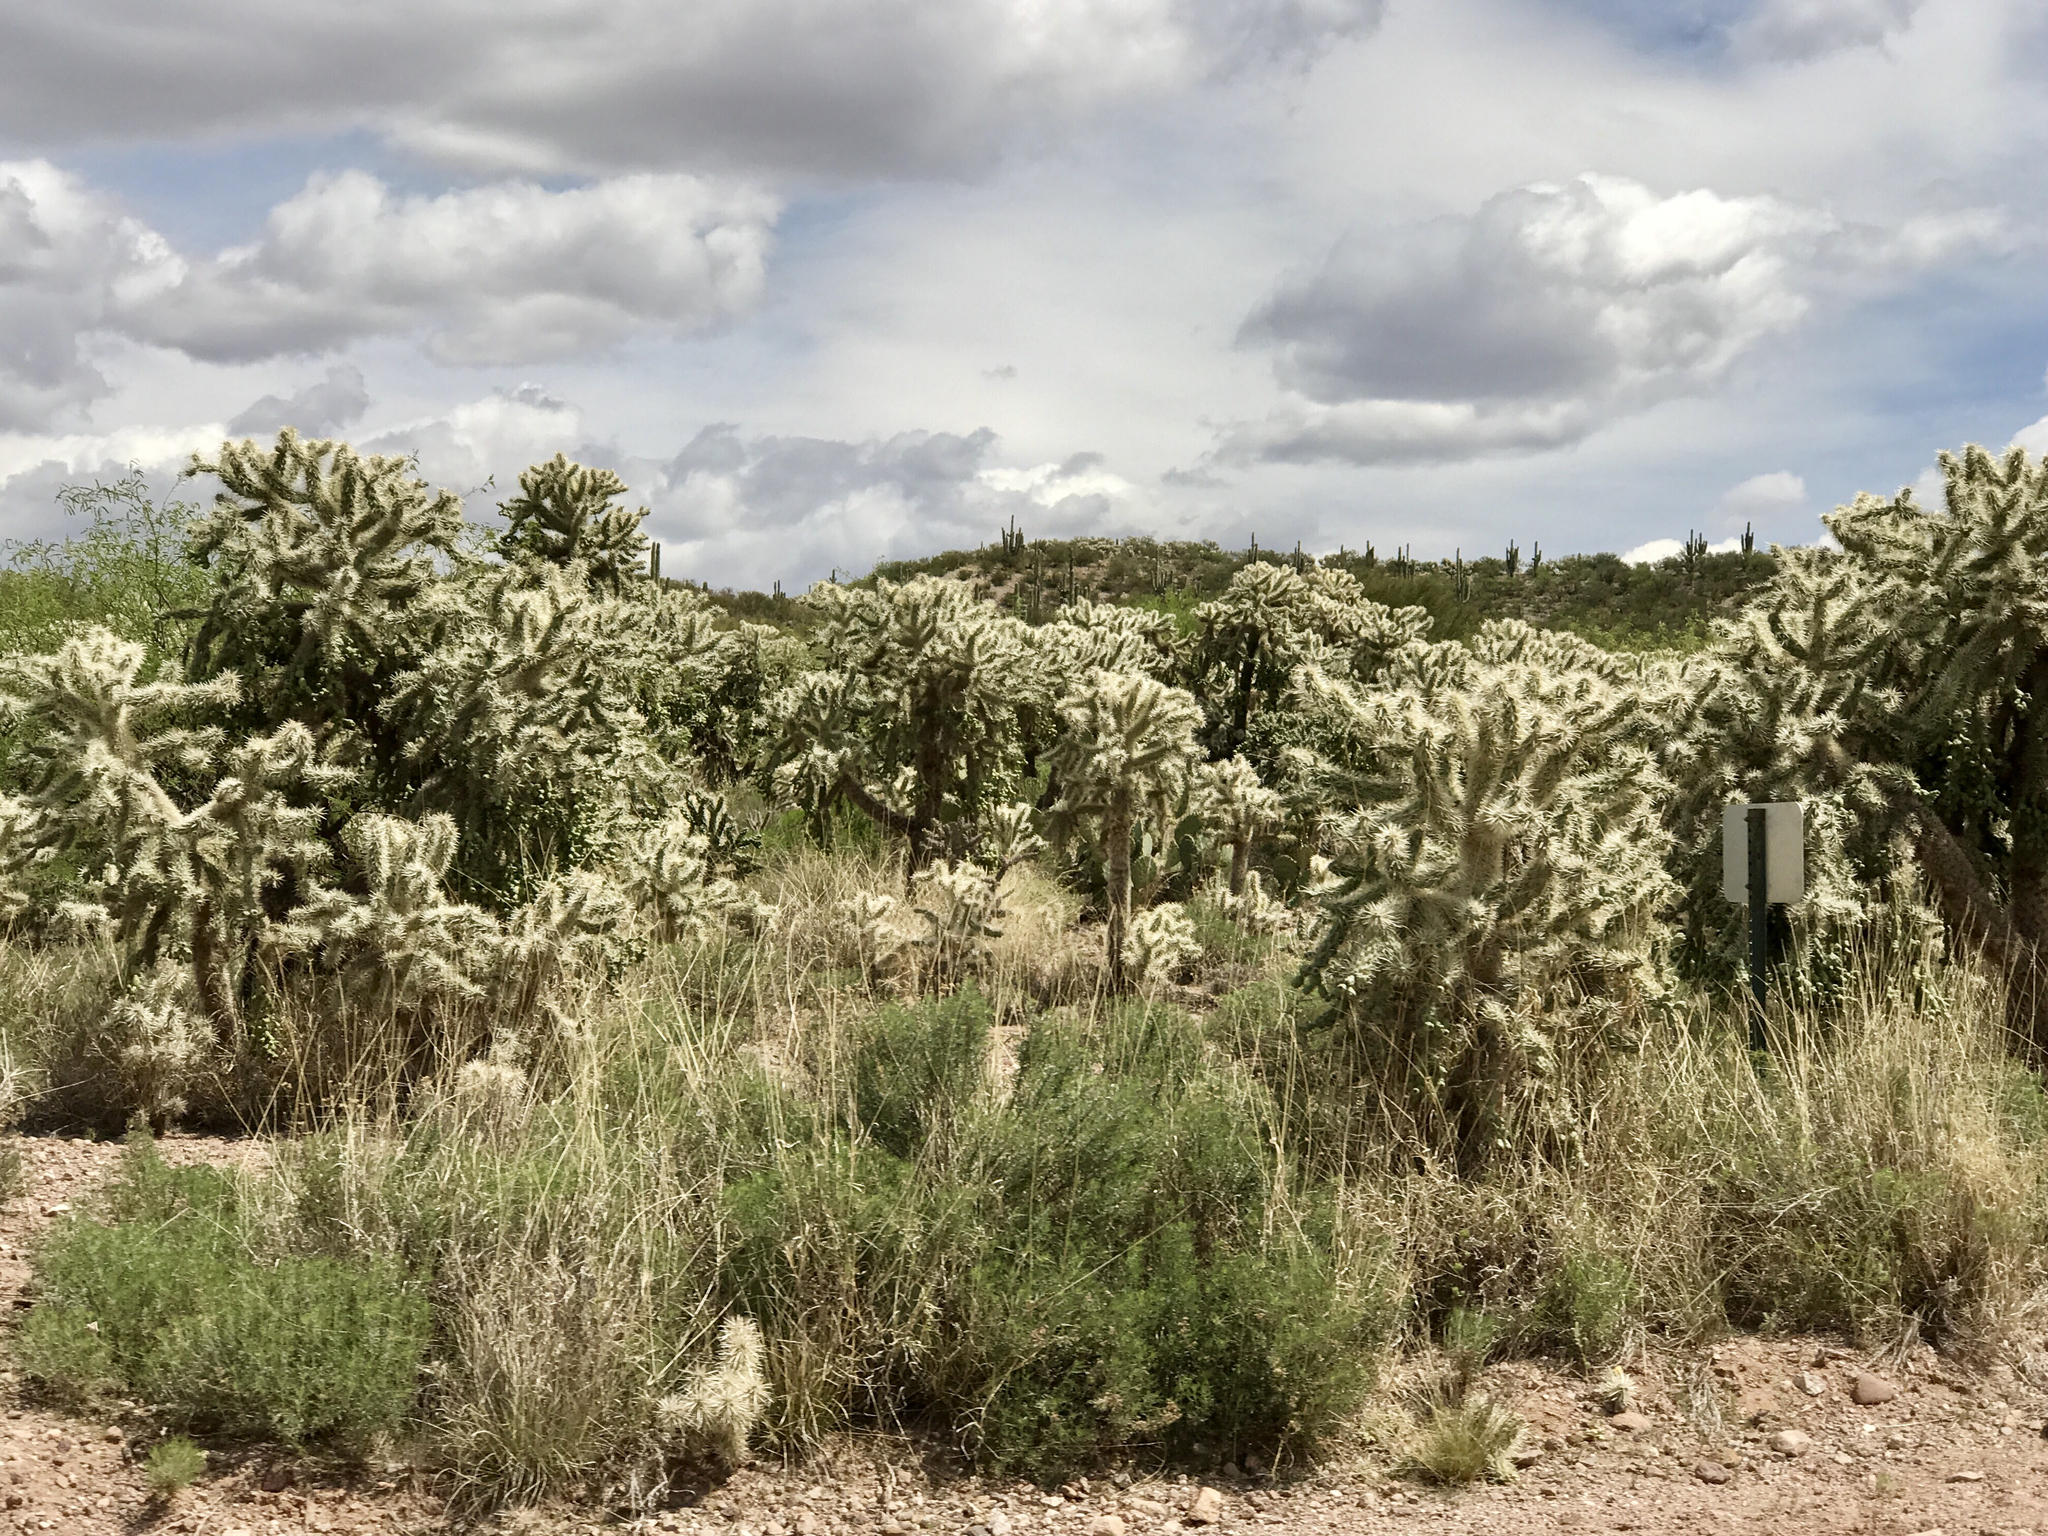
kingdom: Plantae
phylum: Tracheophyta
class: Magnoliopsida
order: Caryophyllales
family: Cactaceae
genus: Cylindropuntia
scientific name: Cylindropuntia fulgida
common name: Jumping cholla
